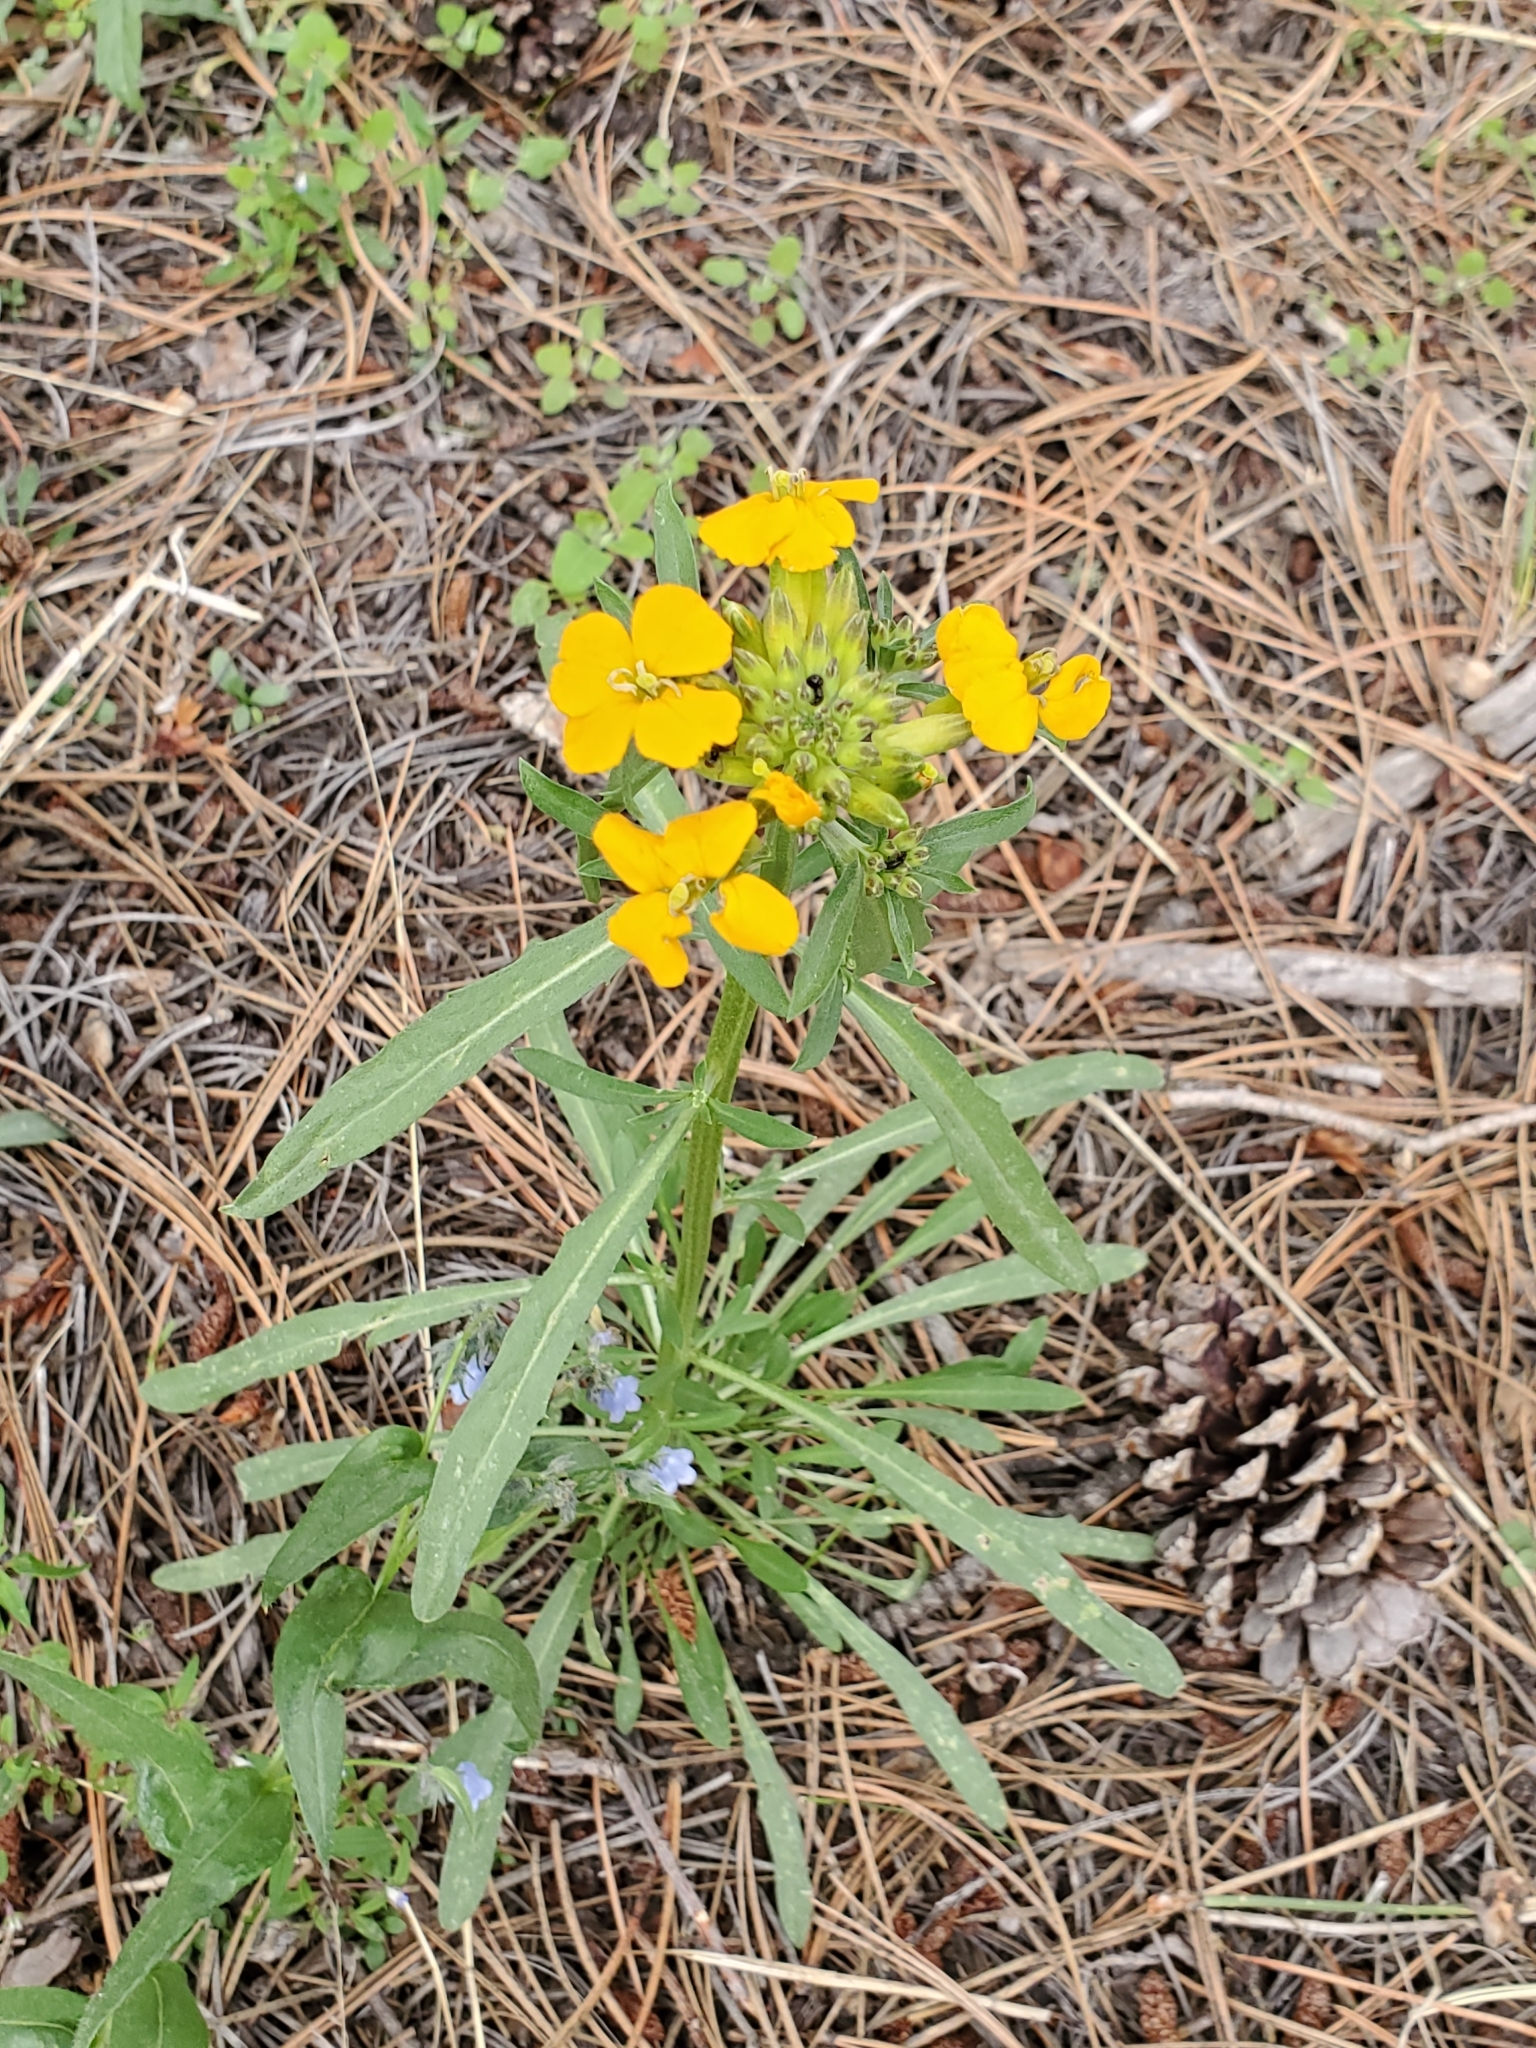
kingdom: Plantae
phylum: Tracheophyta
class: Magnoliopsida
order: Brassicales
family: Brassicaceae
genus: Erysimum
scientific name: Erysimum capitatum
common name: Western wallflower
